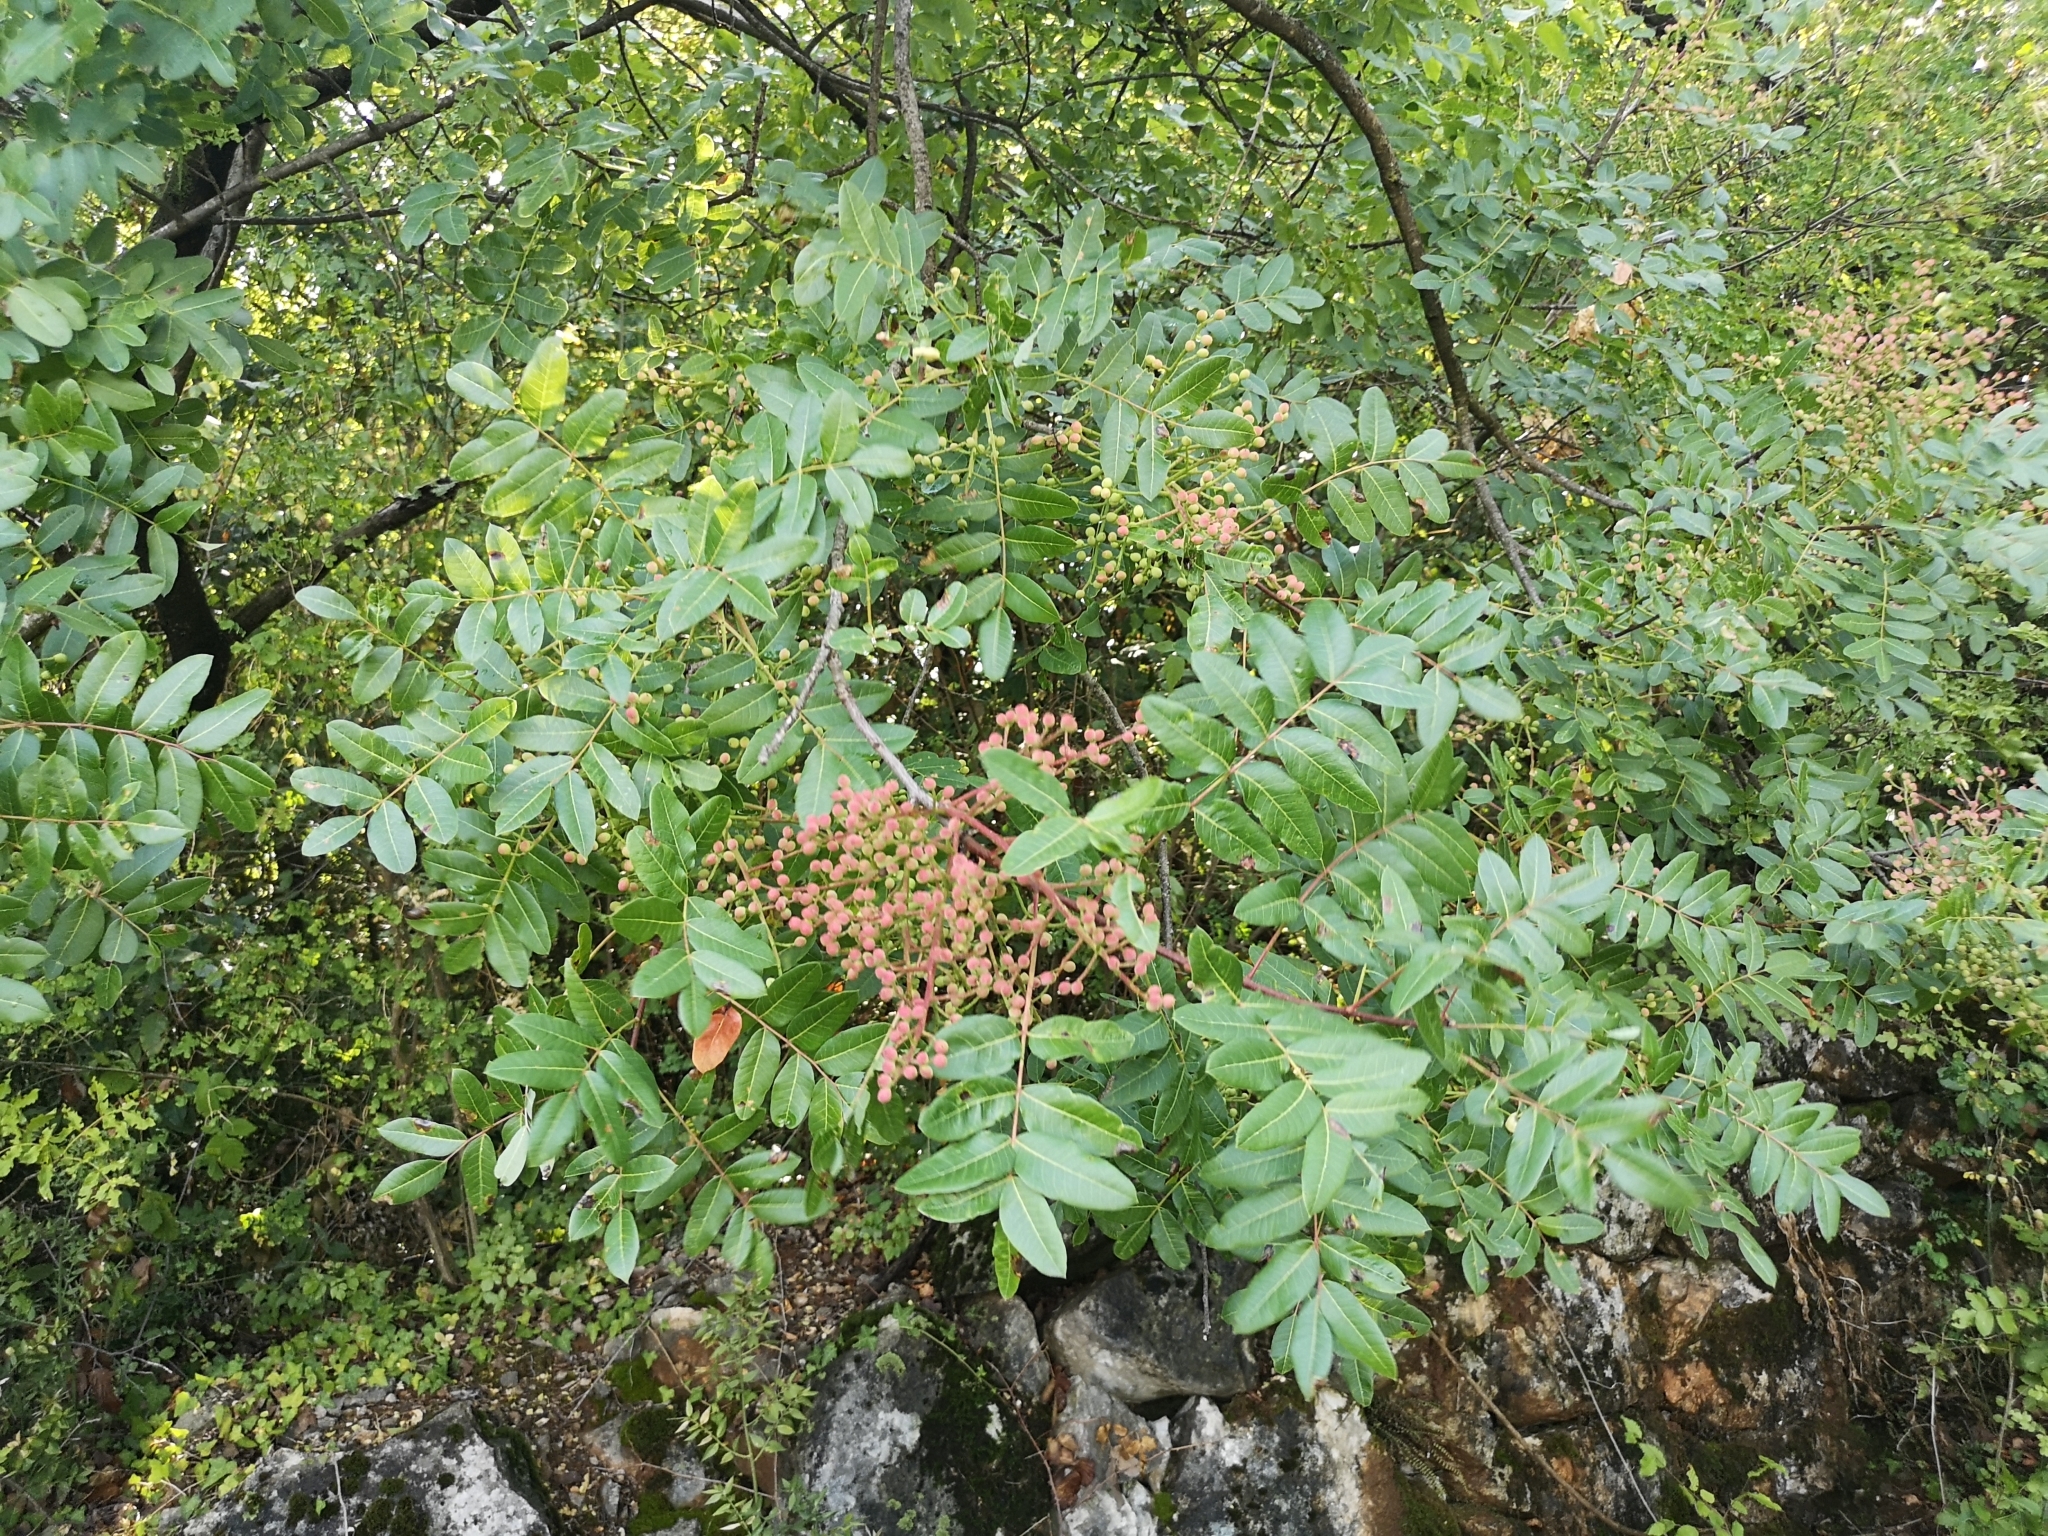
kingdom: Plantae
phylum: Tracheophyta
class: Magnoliopsida
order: Sapindales
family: Anacardiaceae
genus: Pistacia
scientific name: Pistacia terebinthus
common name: Terebinth
